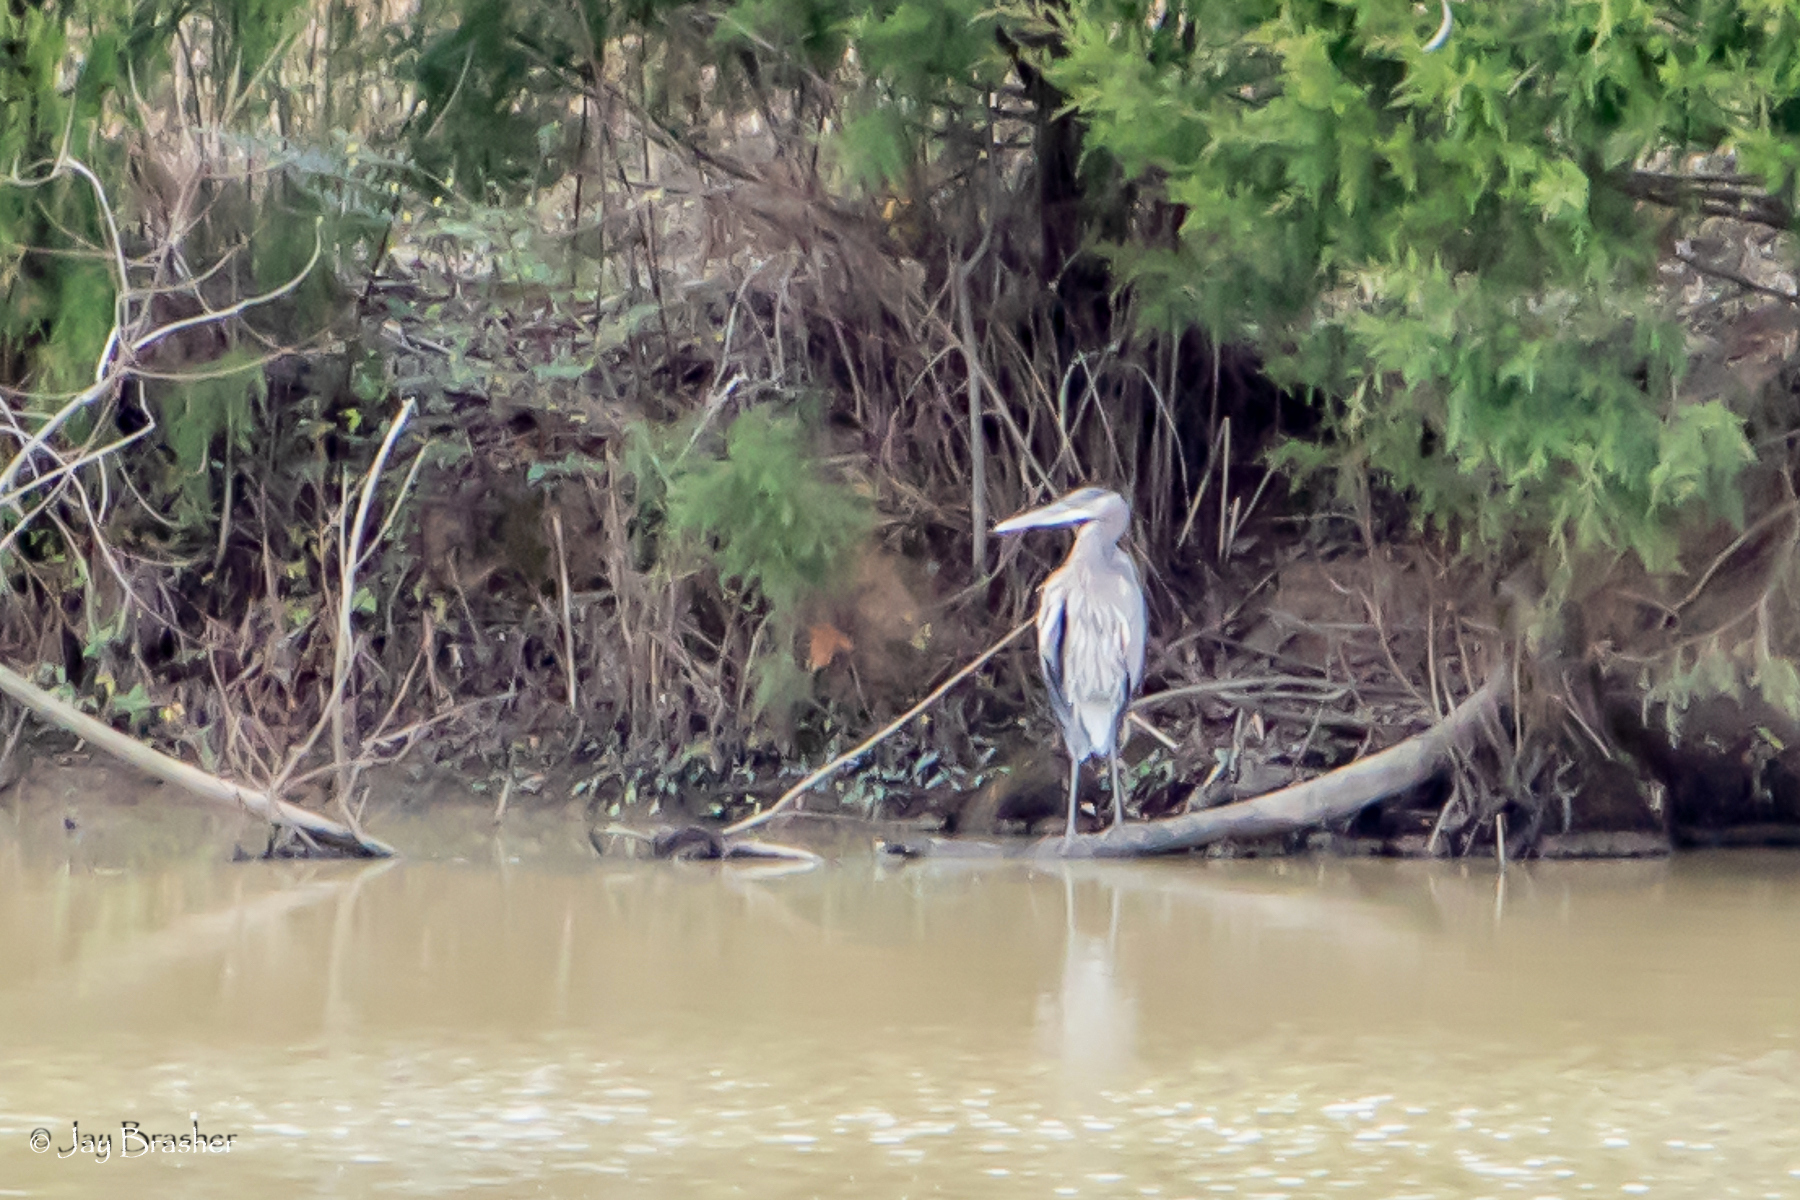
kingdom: Animalia
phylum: Chordata
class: Aves
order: Pelecaniformes
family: Ardeidae
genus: Ardea
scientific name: Ardea herodias
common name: Great blue heron
